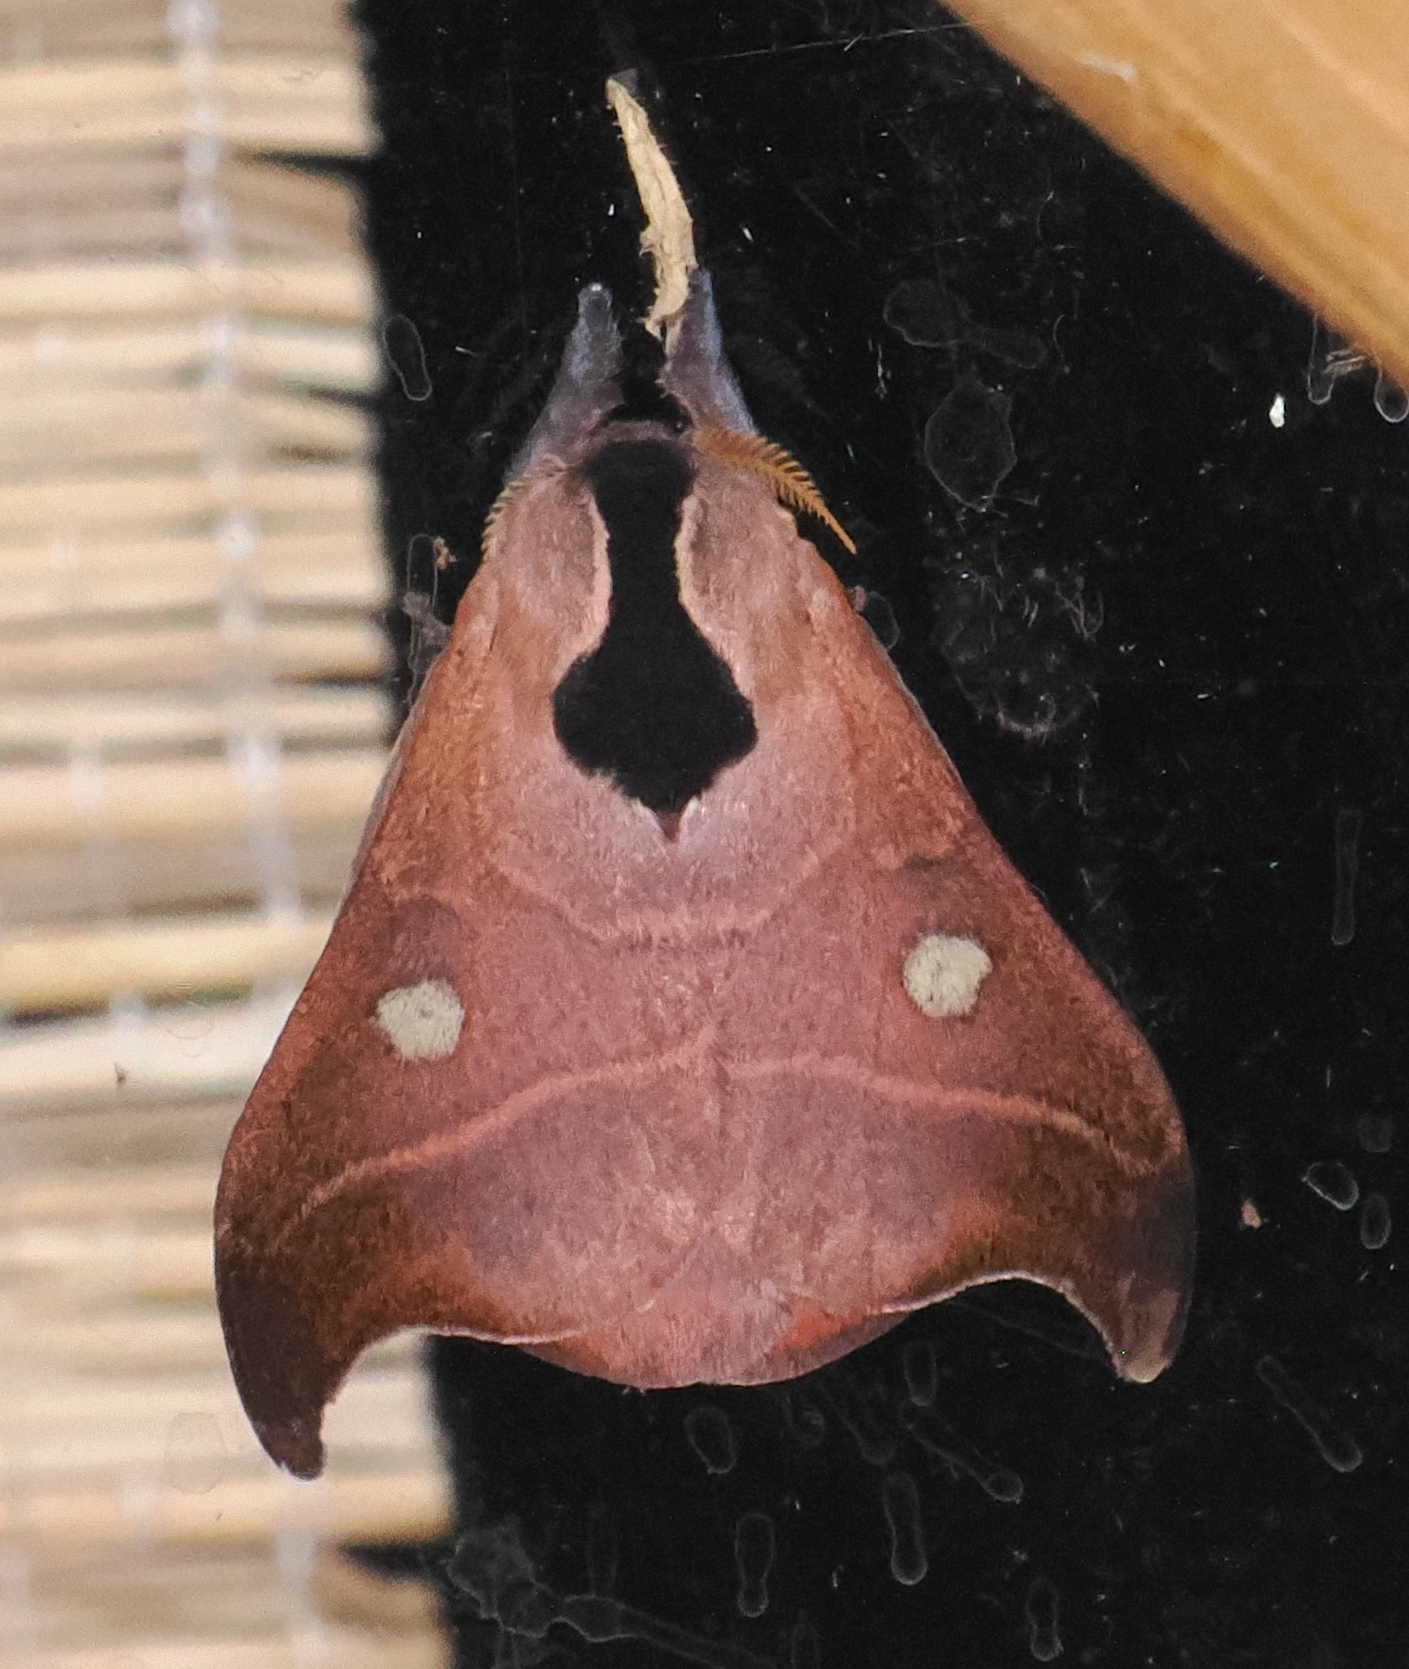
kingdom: Animalia
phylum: Arthropoda
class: Insecta
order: Lepidoptera
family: Saturniidae
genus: Hylesia
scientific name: Hylesia nanus
